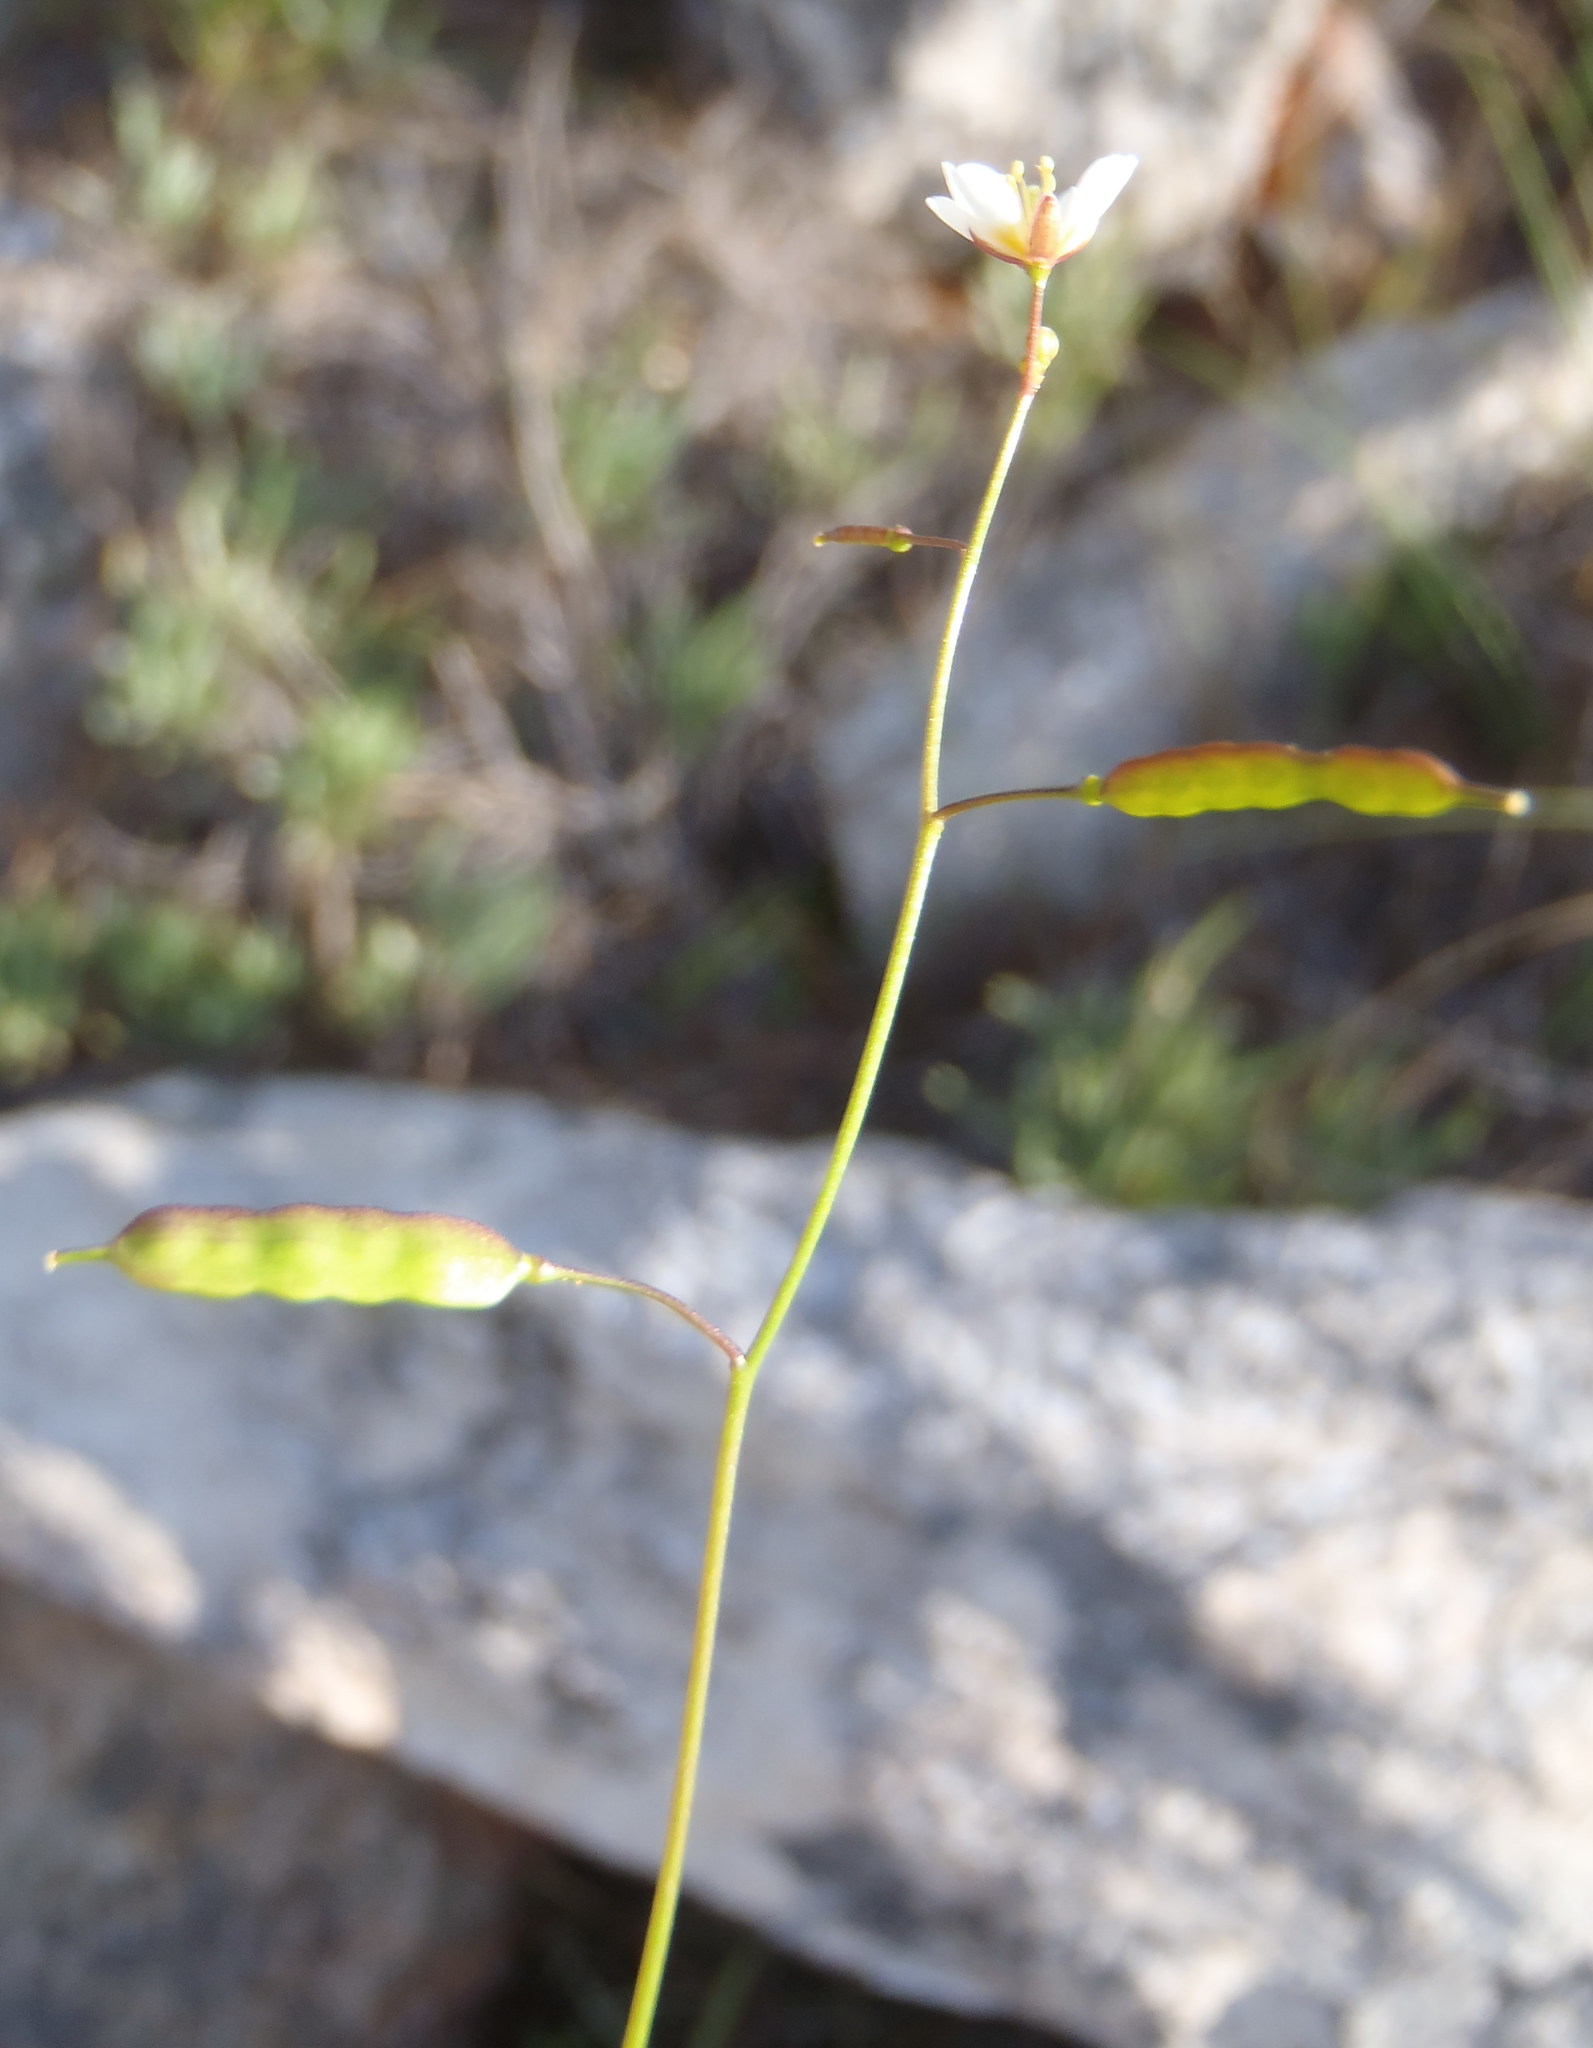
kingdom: Plantae
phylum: Tracheophyta
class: Magnoliopsida
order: Brassicales
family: Brassicaceae
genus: Heliophila
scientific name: Heliophila pendula
